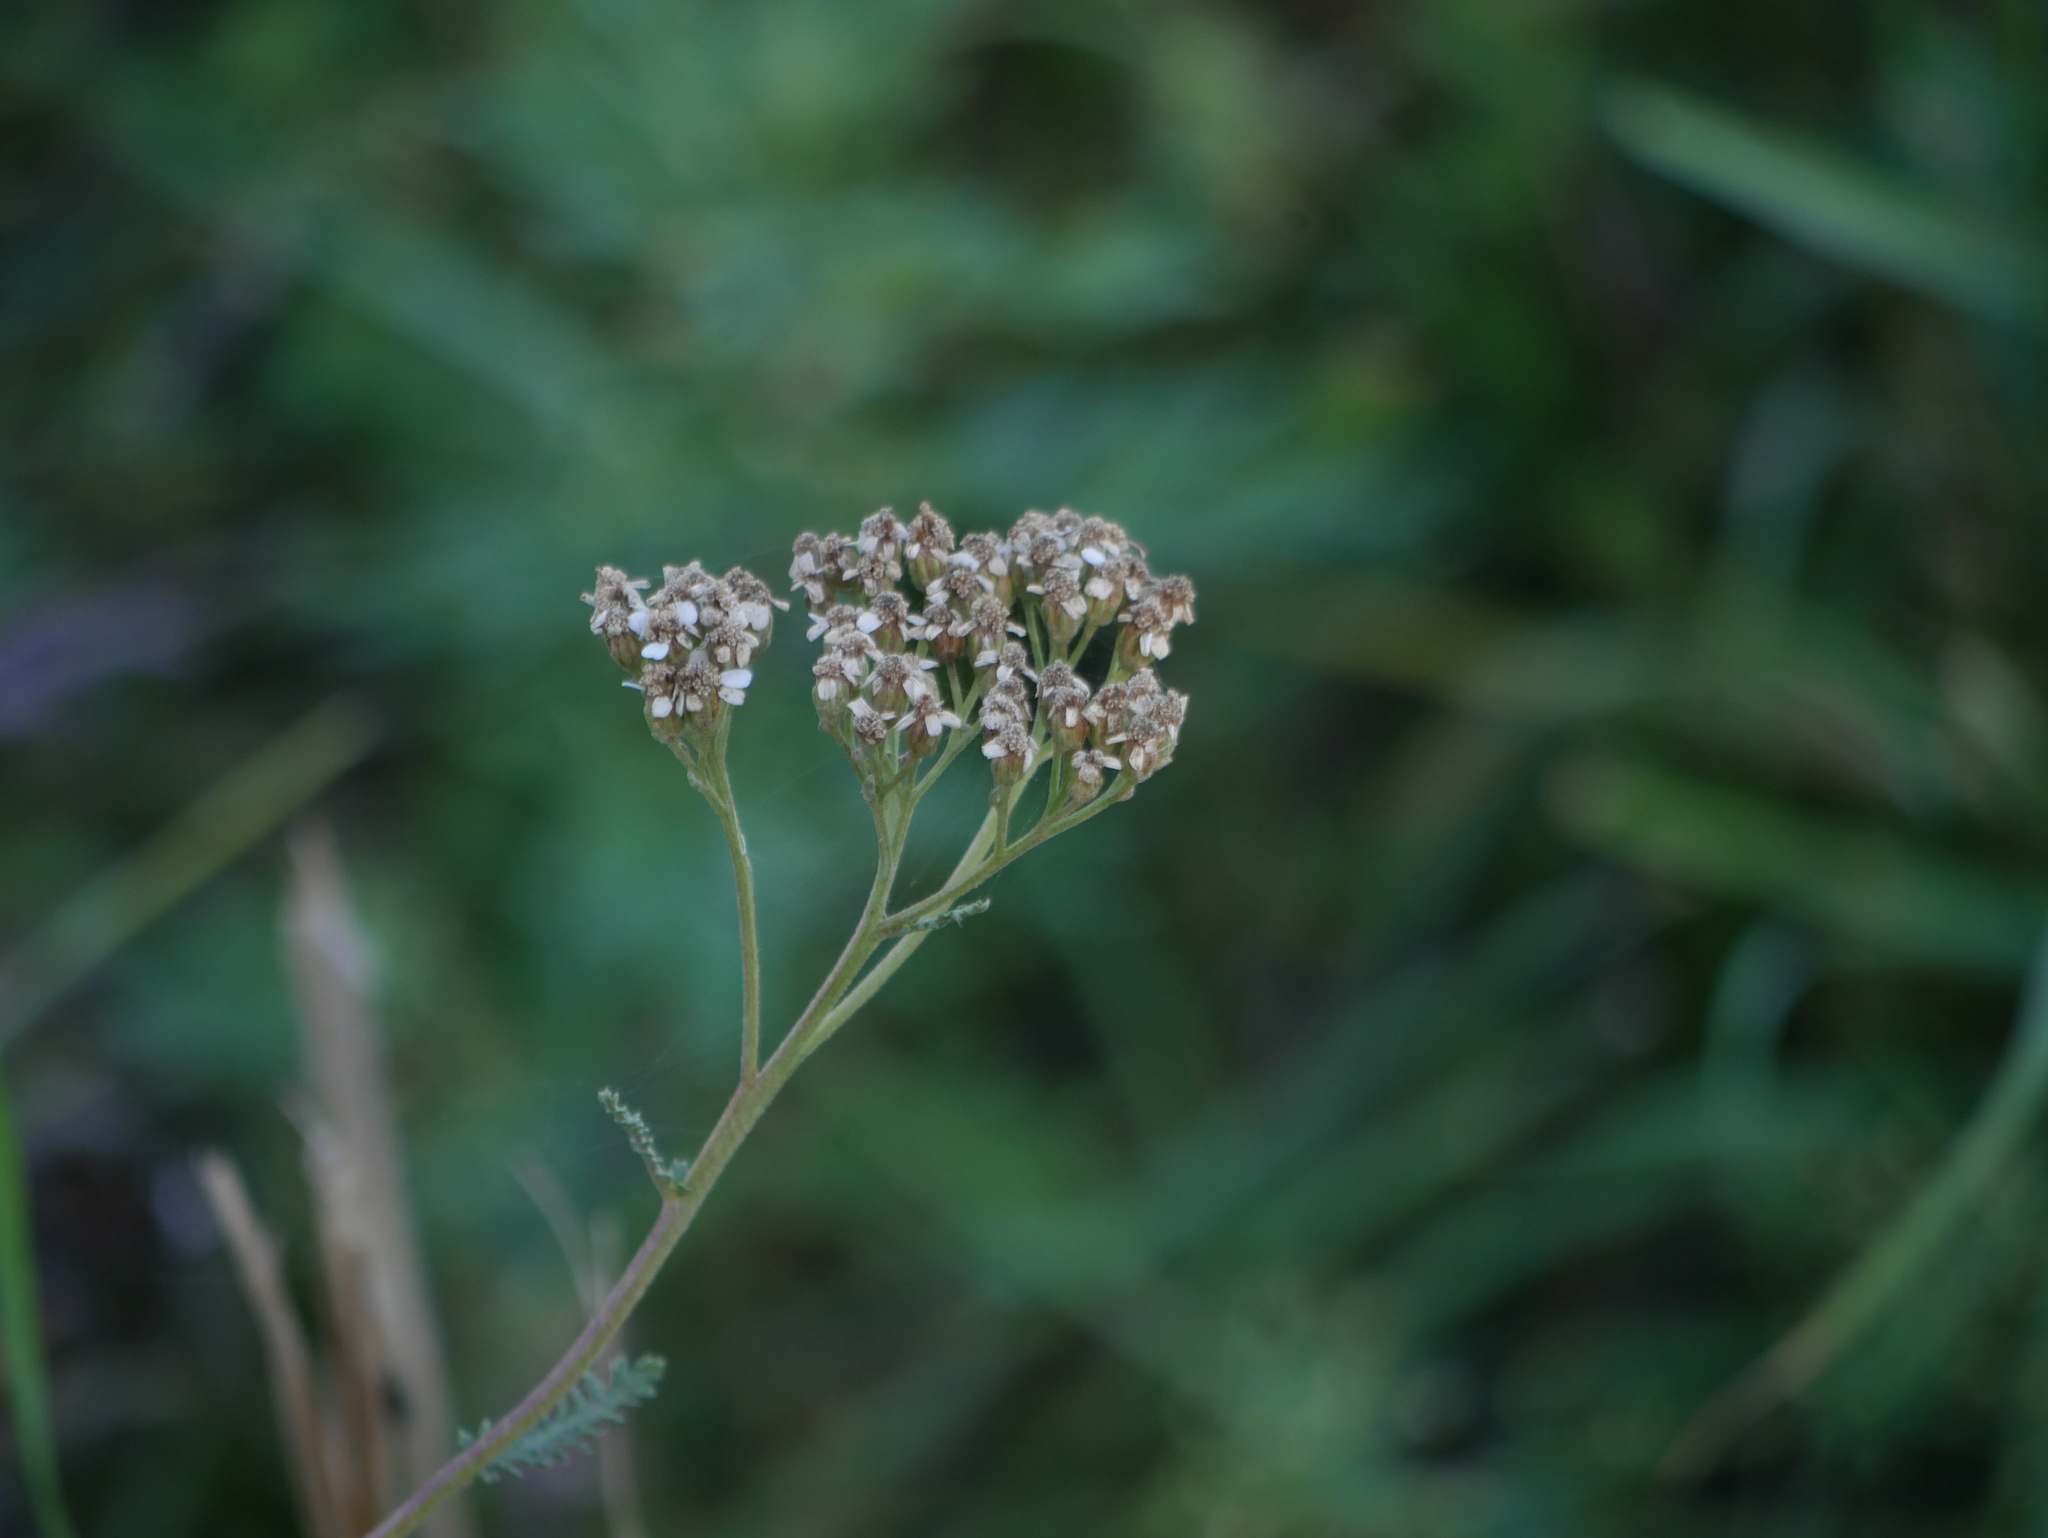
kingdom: Plantae
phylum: Tracheophyta
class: Magnoliopsida
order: Asterales
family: Asteraceae
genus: Achillea
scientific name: Achillea millefolium
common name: Yarrow
